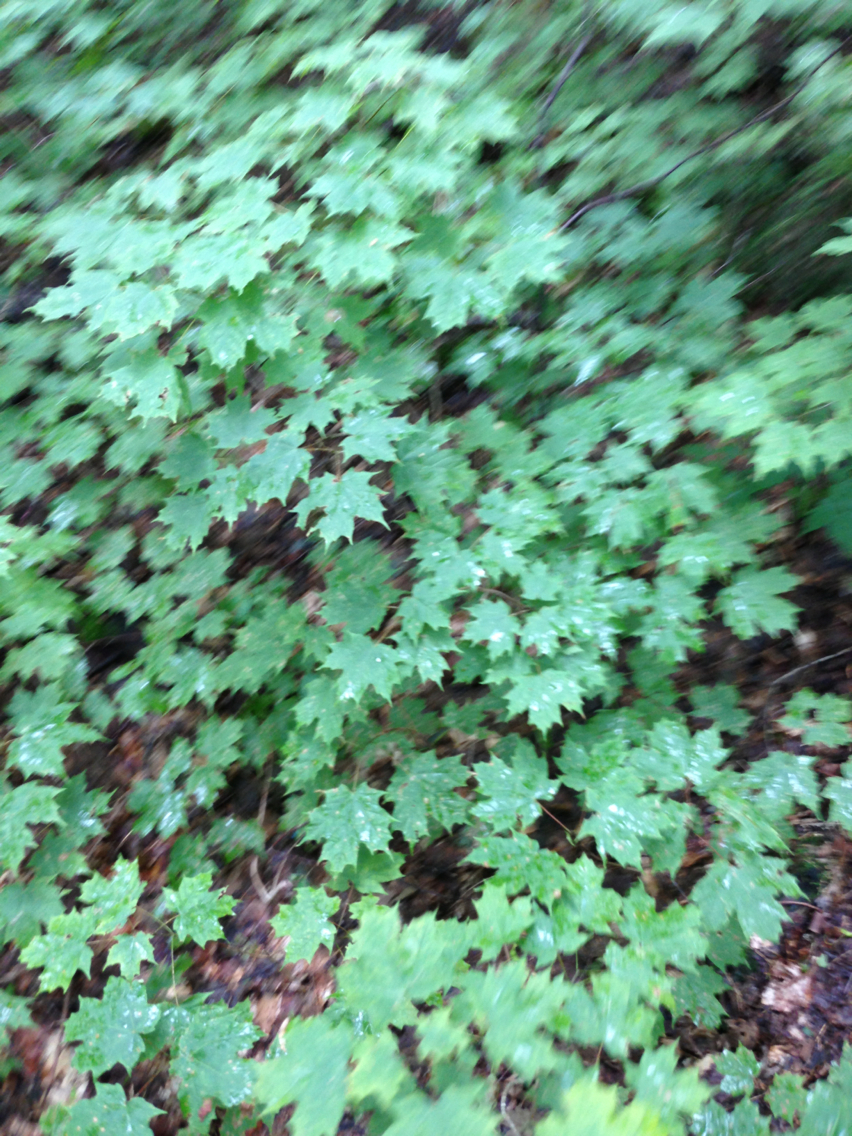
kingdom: Plantae
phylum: Tracheophyta
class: Magnoliopsida
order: Sapindales
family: Sapindaceae
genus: Acer
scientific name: Acer saccharum
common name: Sugar maple
